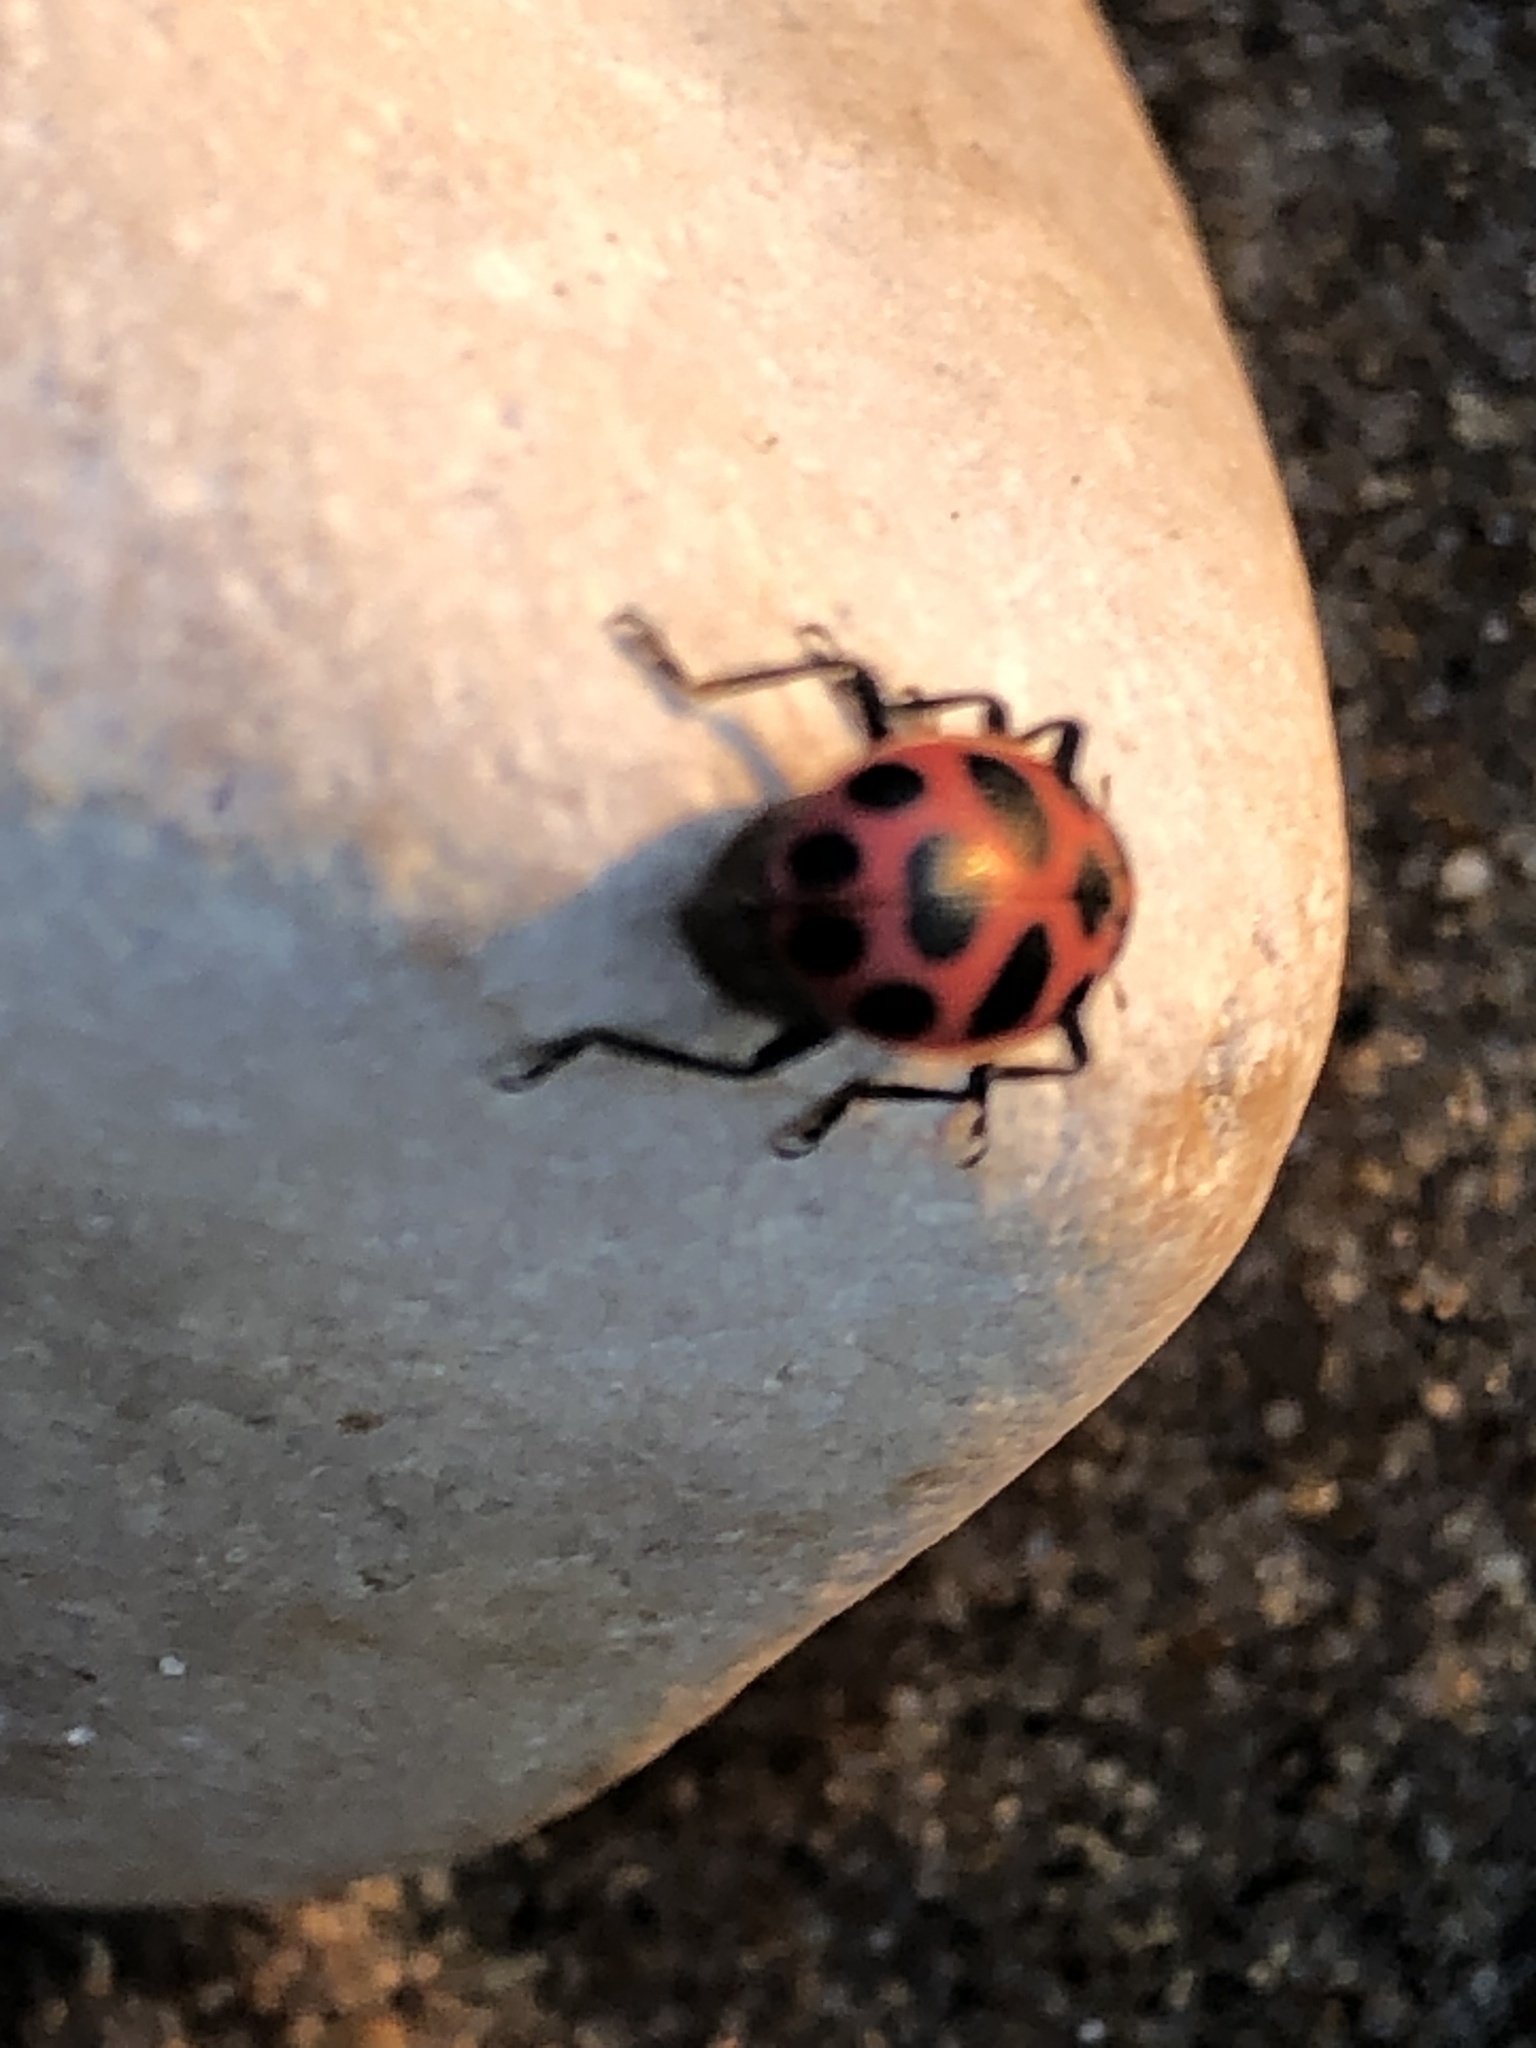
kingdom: Animalia
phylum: Arthropoda
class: Insecta
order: Coleoptera
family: Coccinellidae
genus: Coleomegilla
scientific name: Coleomegilla maculata
